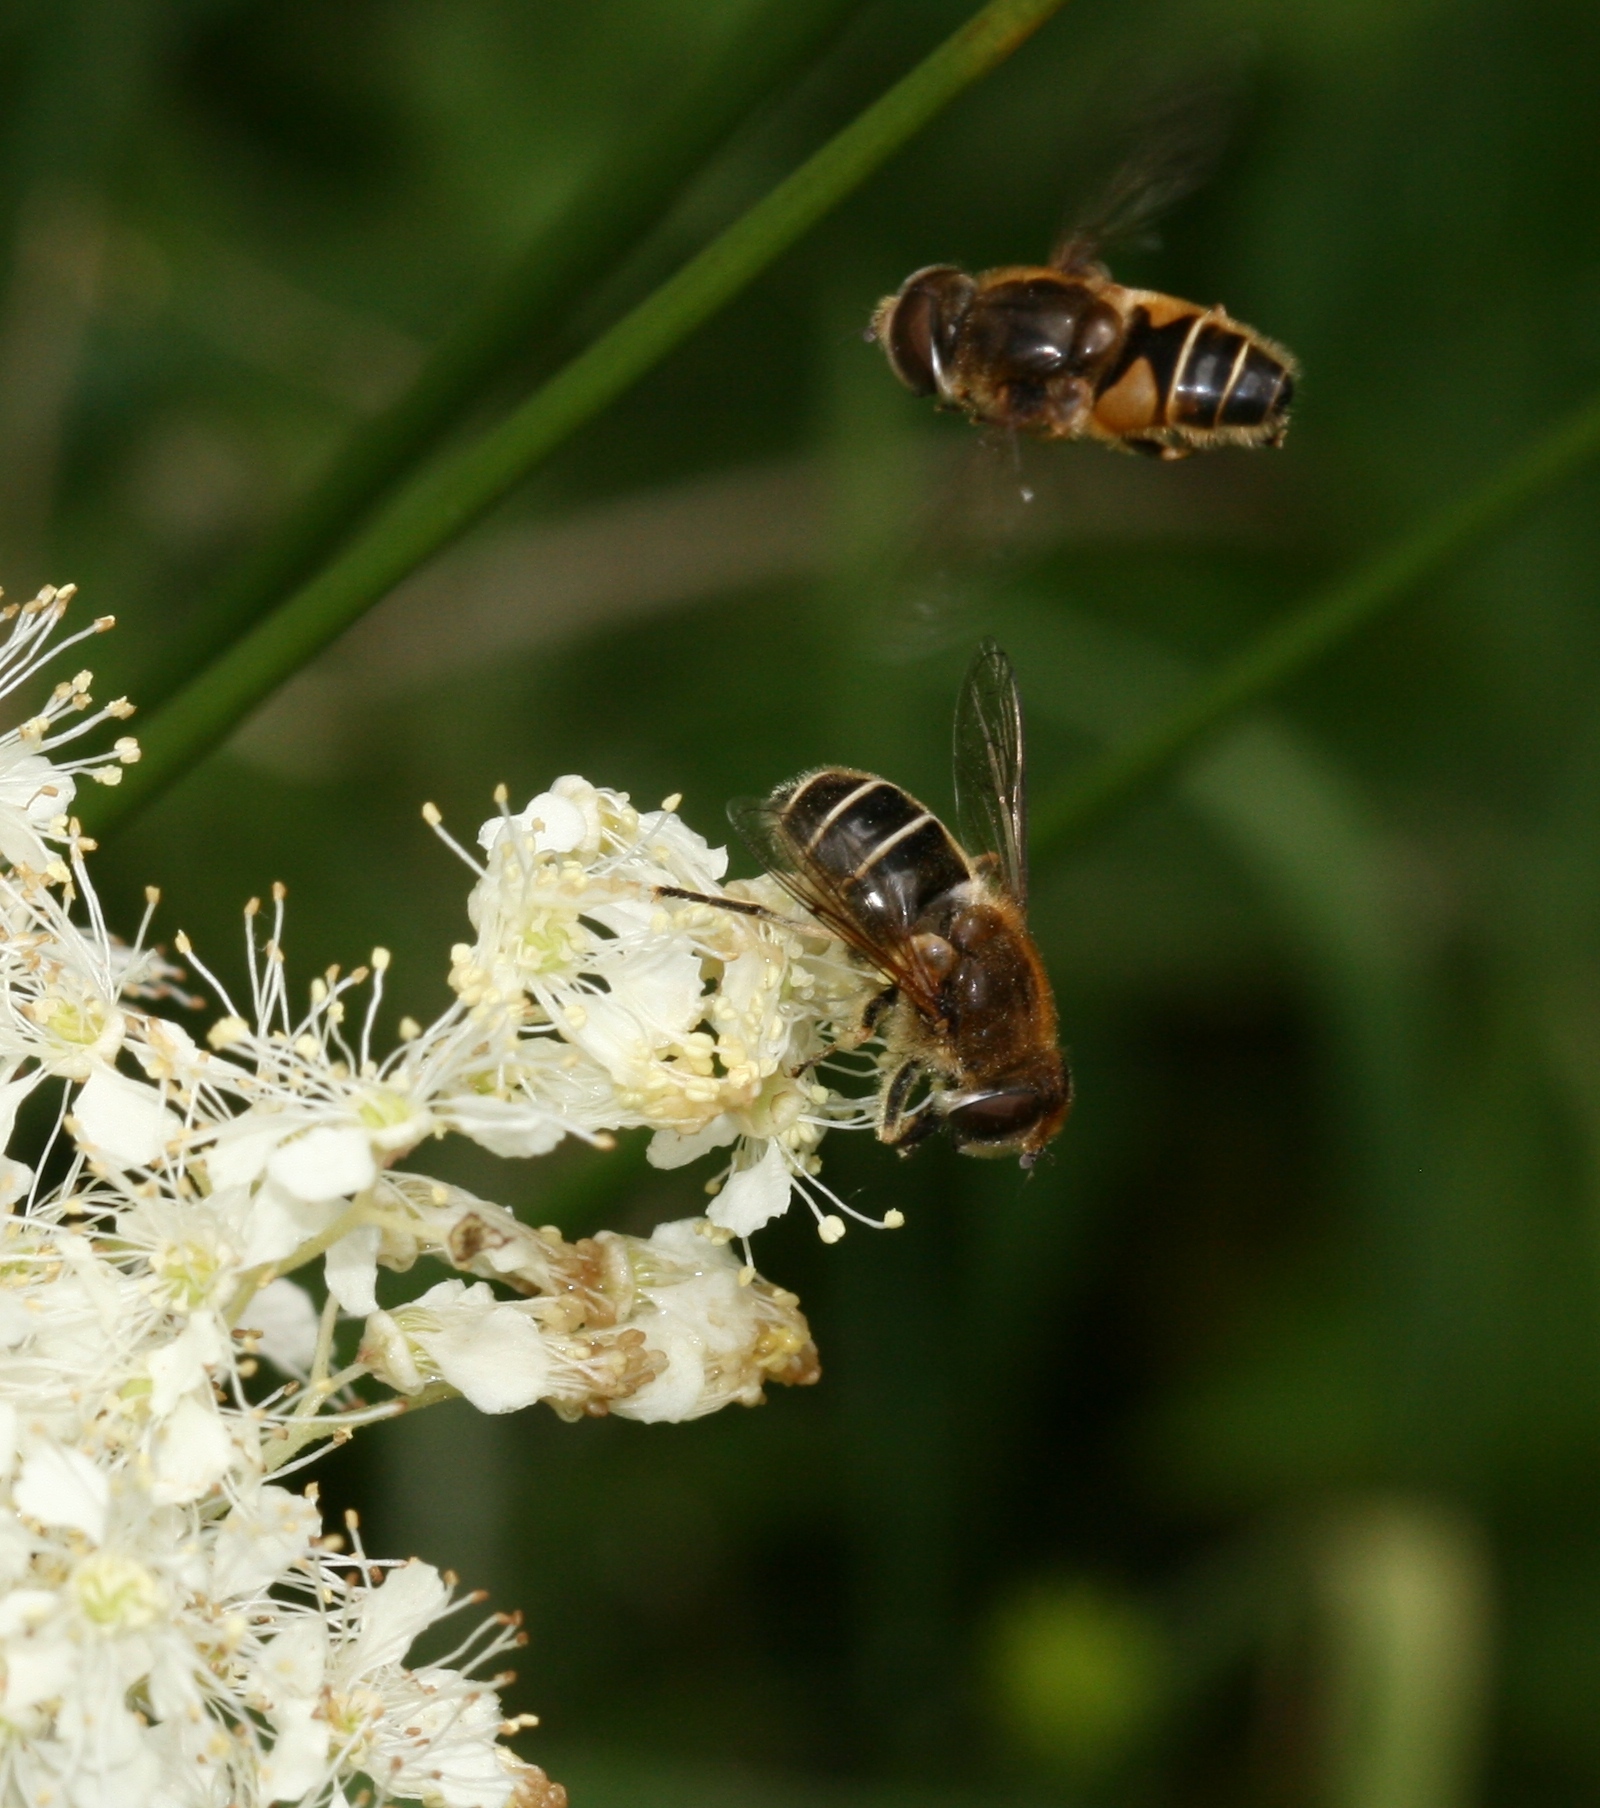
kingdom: Animalia
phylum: Arthropoda
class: Insecta
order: Diptera
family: Syrphidae
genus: Eristalis
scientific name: Eristalis nemorum
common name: Orange-spined drone fly
